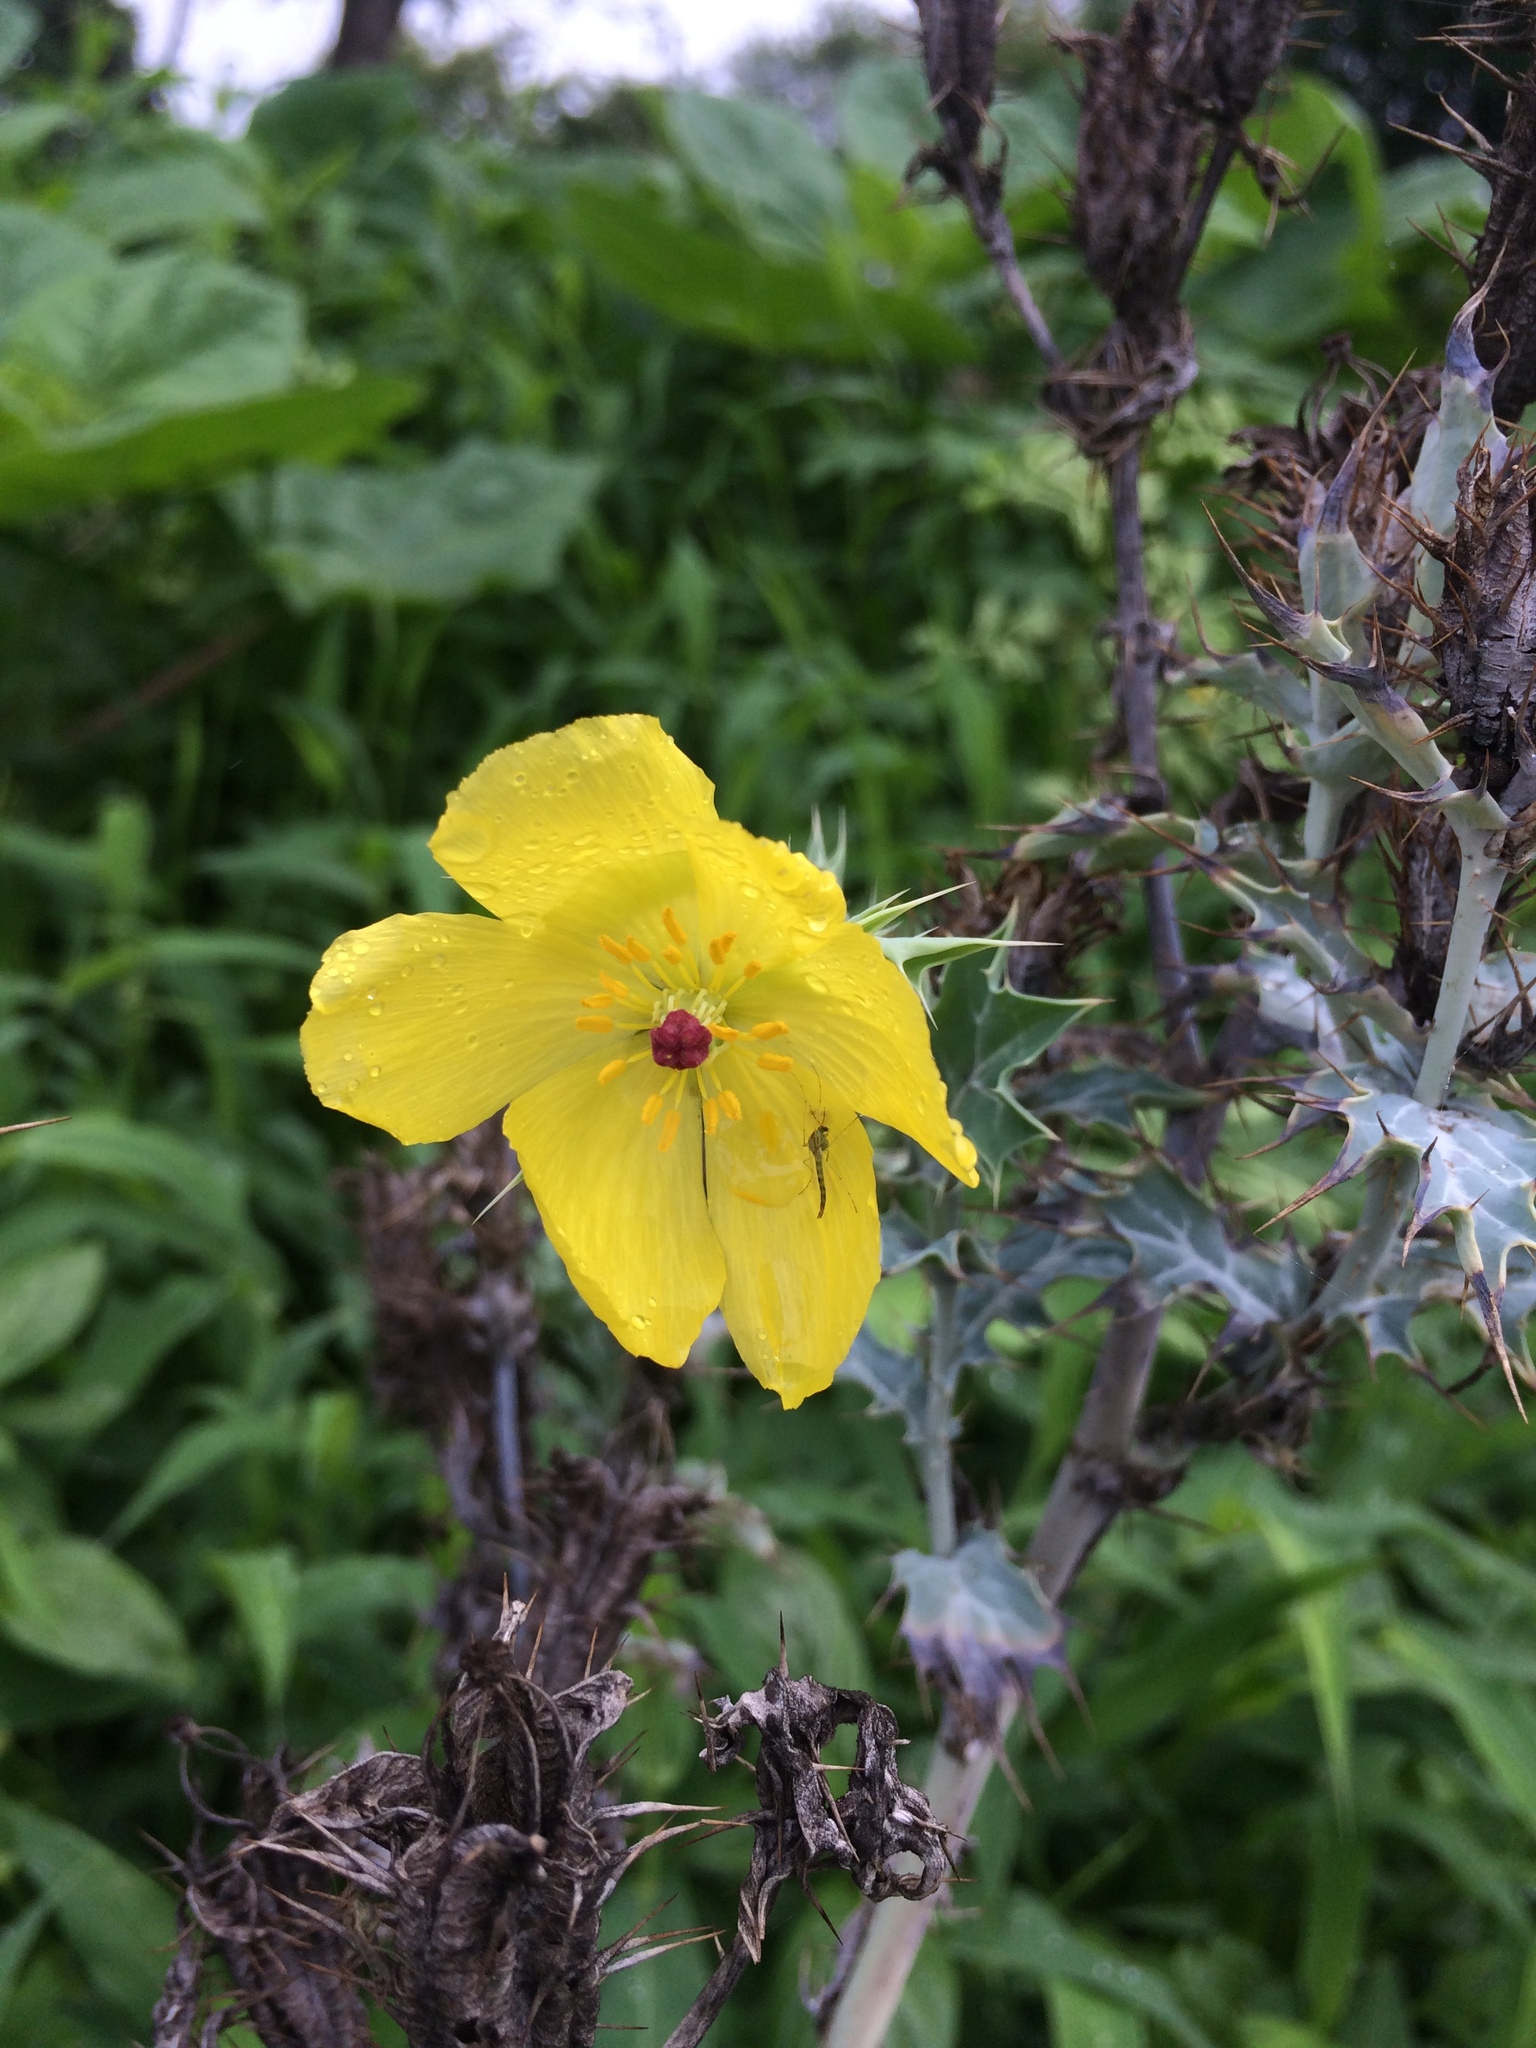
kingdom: Plantae
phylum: Tracheophyta
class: Magnoliopsida
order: Ranunculales
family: Papaveraceae
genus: Argemone
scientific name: Argemone mexicana
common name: Mexican poppy
